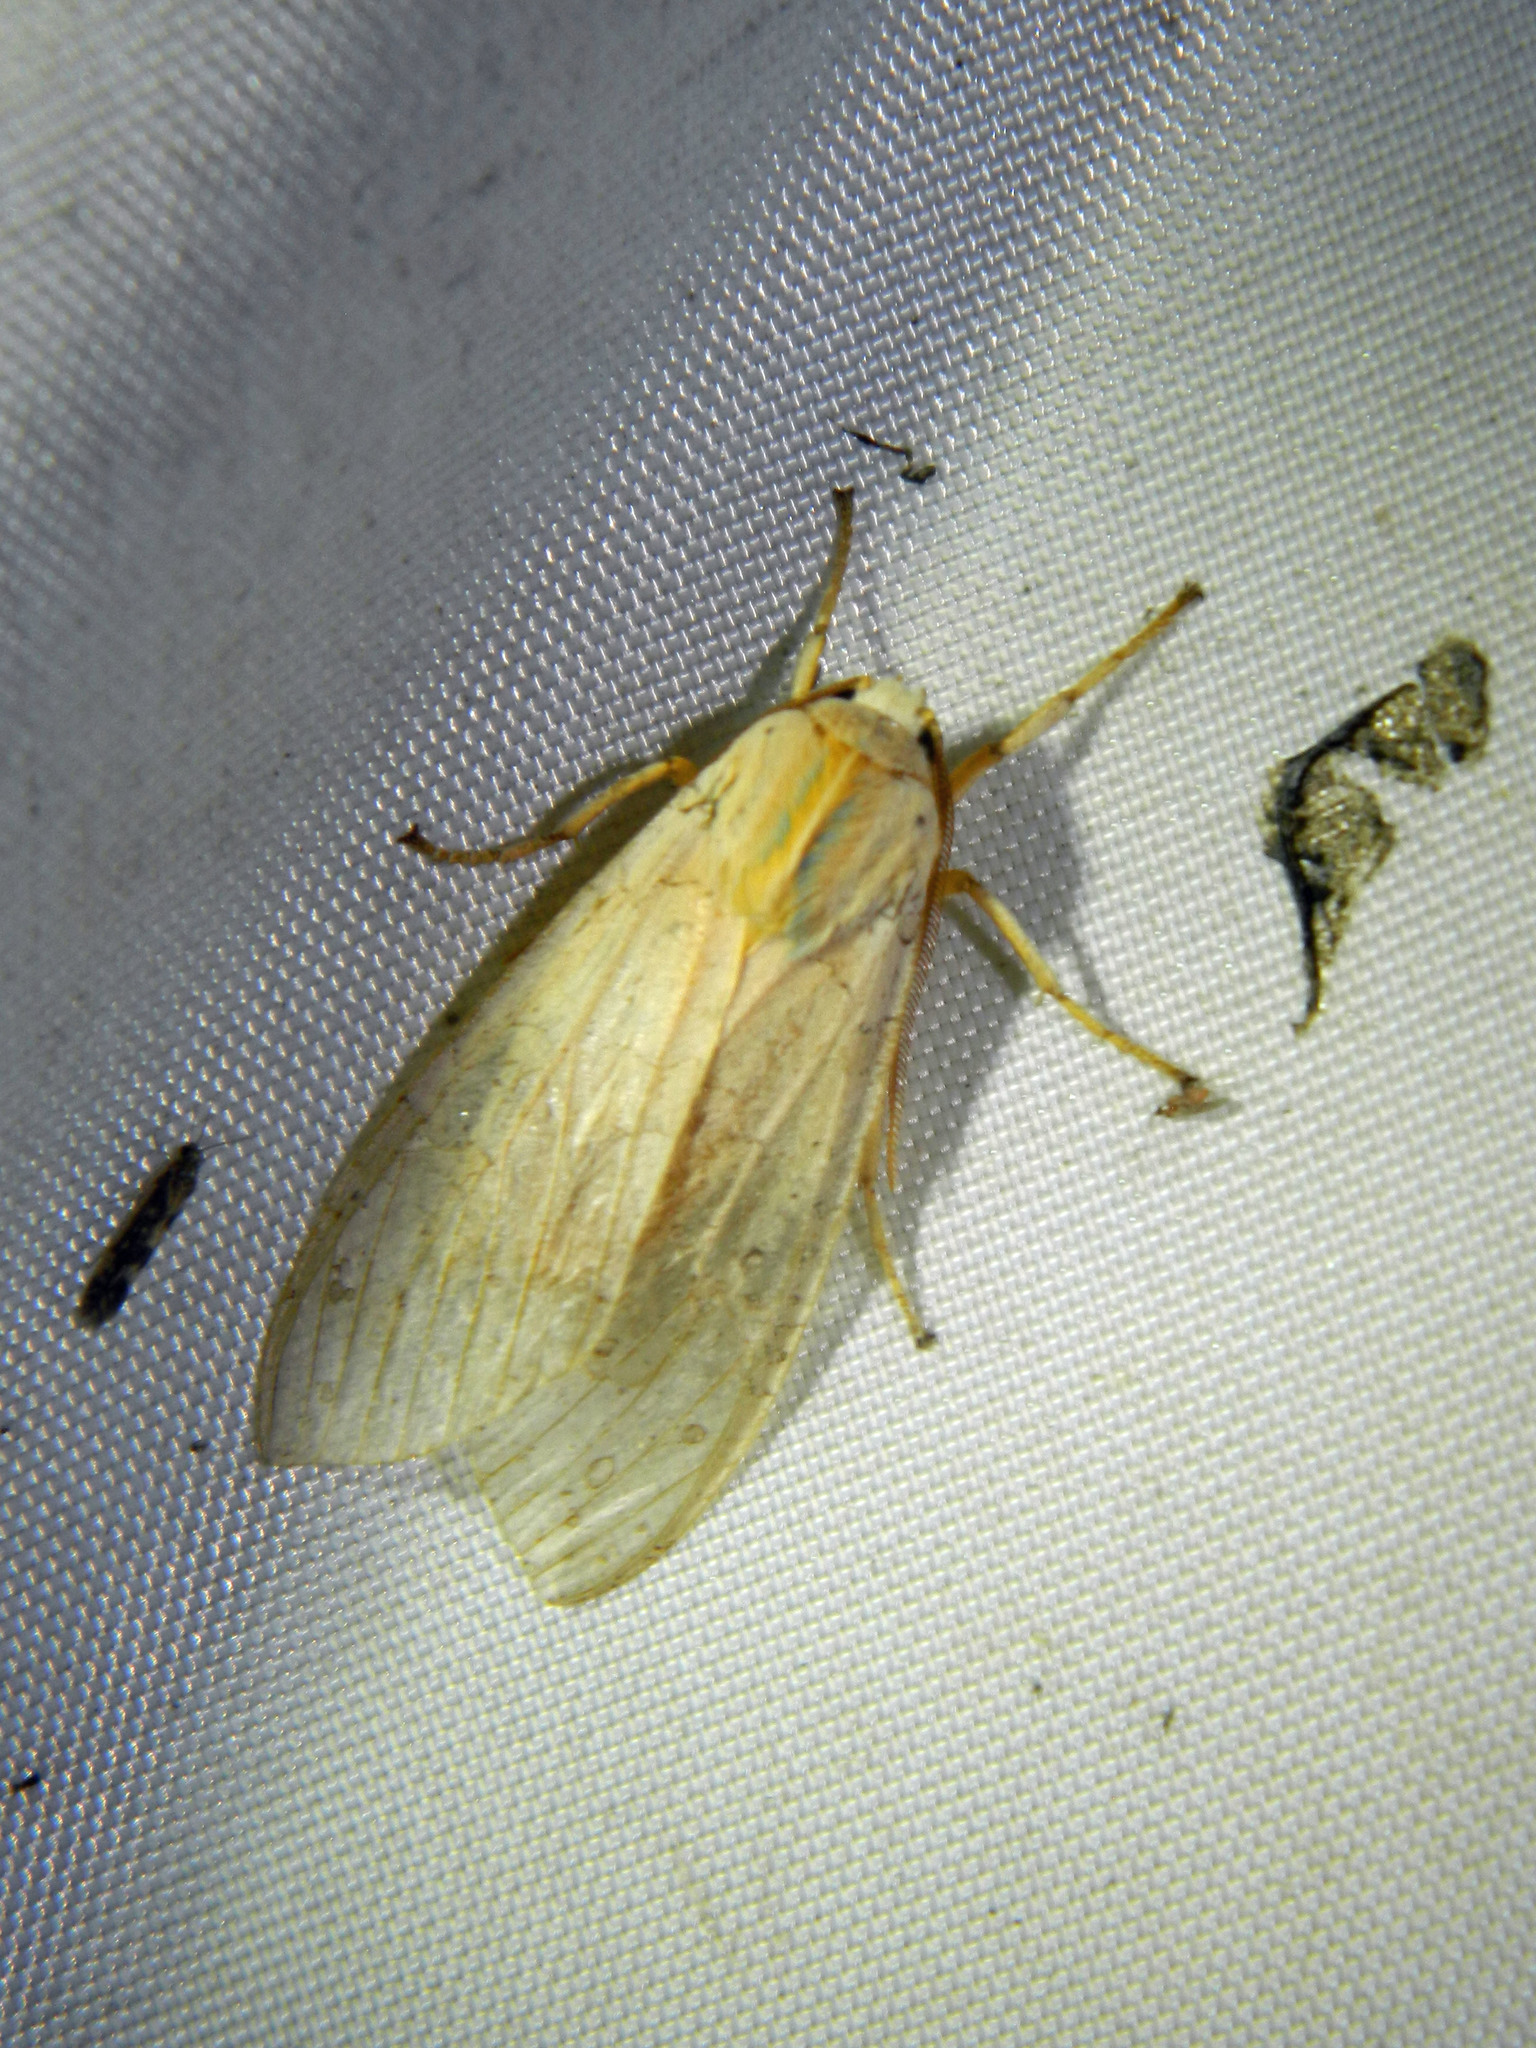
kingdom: Animalia
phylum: Arthropoda
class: Insecta
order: Lepidoptera
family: Erebidae
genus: Halysidota
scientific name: Halysidota tessellaris
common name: Banded tussock moth
